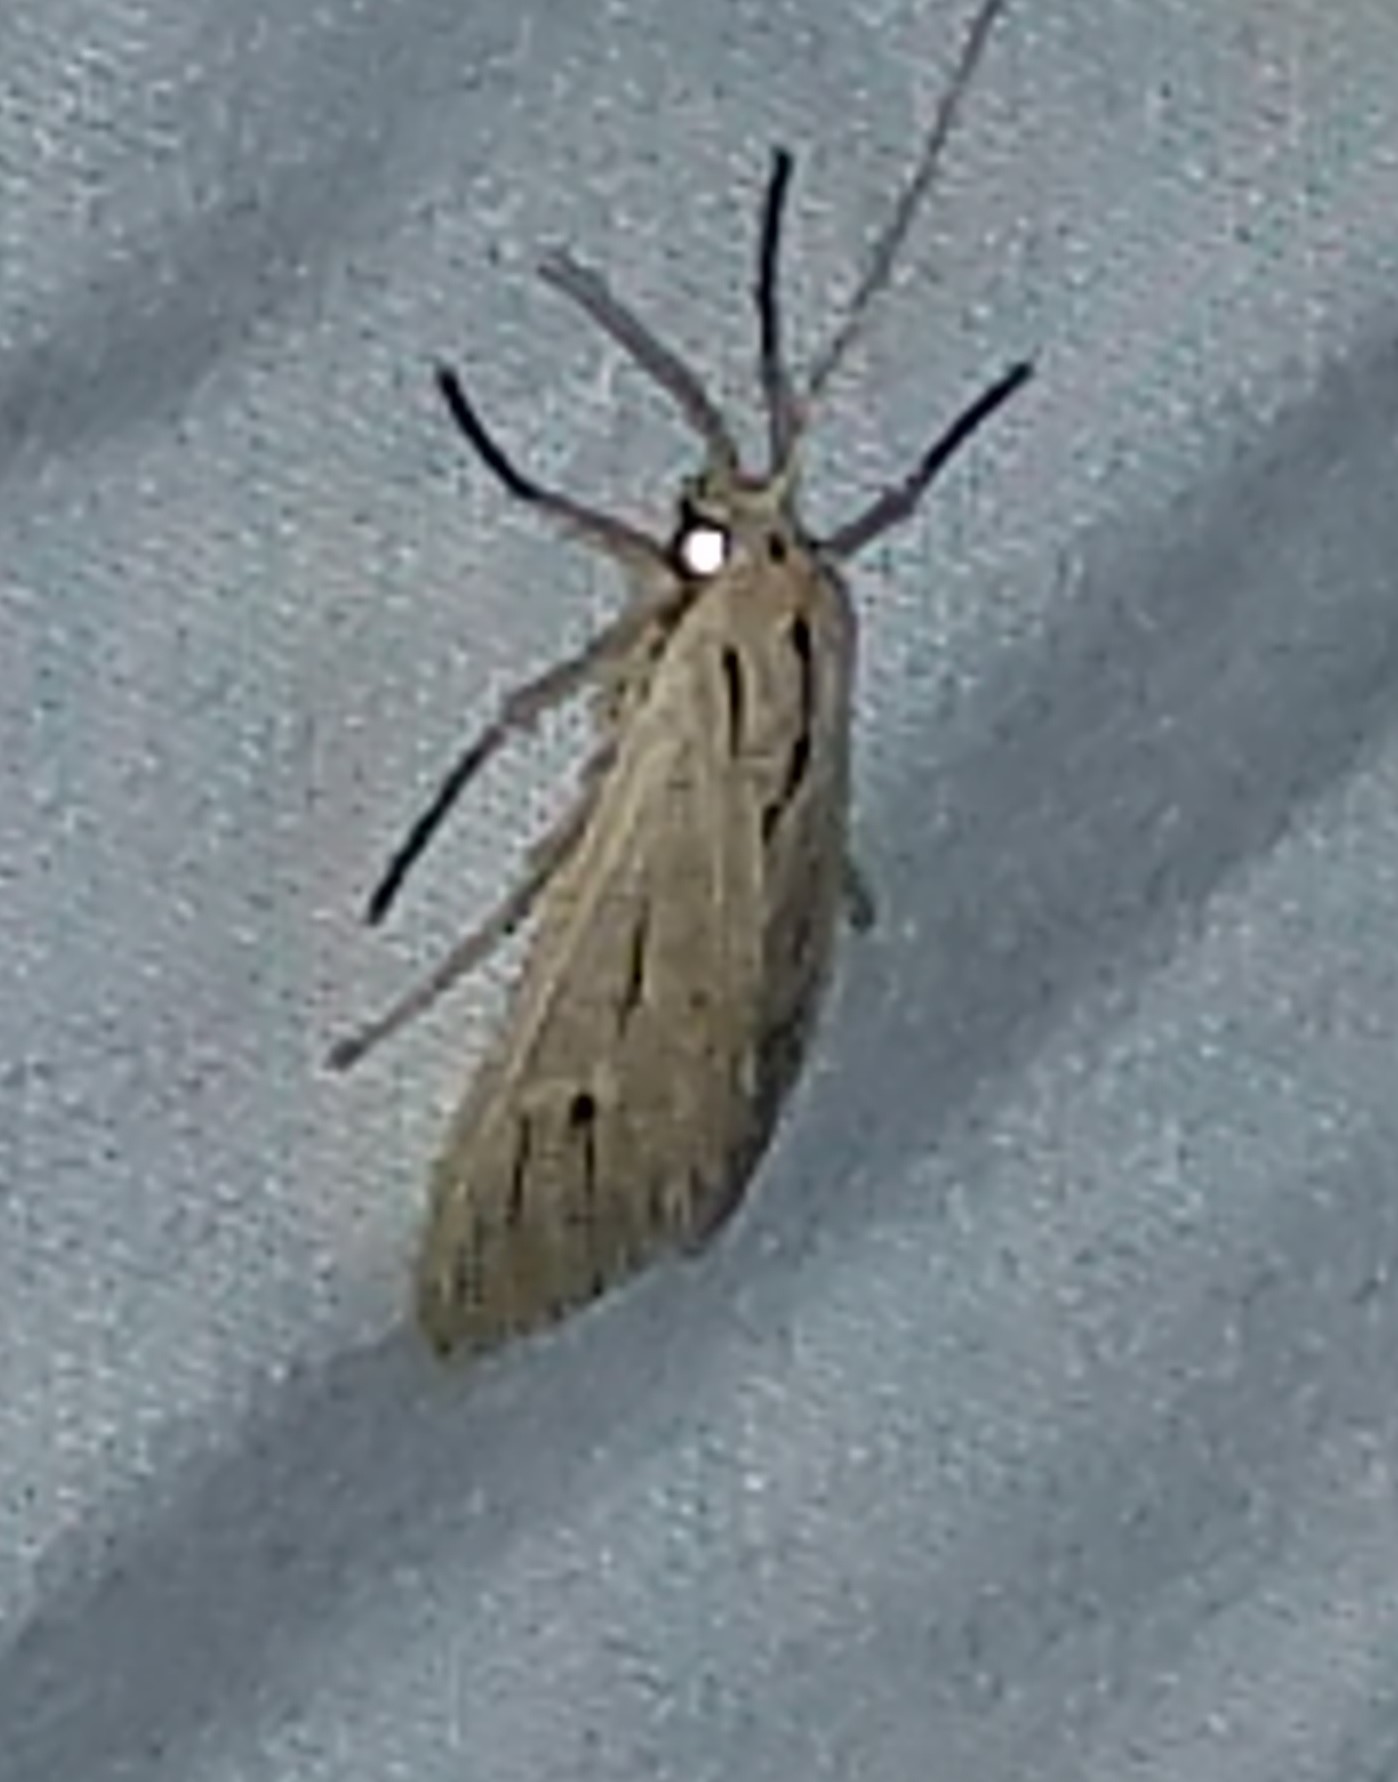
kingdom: Animalia
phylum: Arthropoda
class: Insecta
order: Lepidoptera
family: Erebidae
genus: Arctagyrta
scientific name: Arctagyrta Agaraea semivitrea
